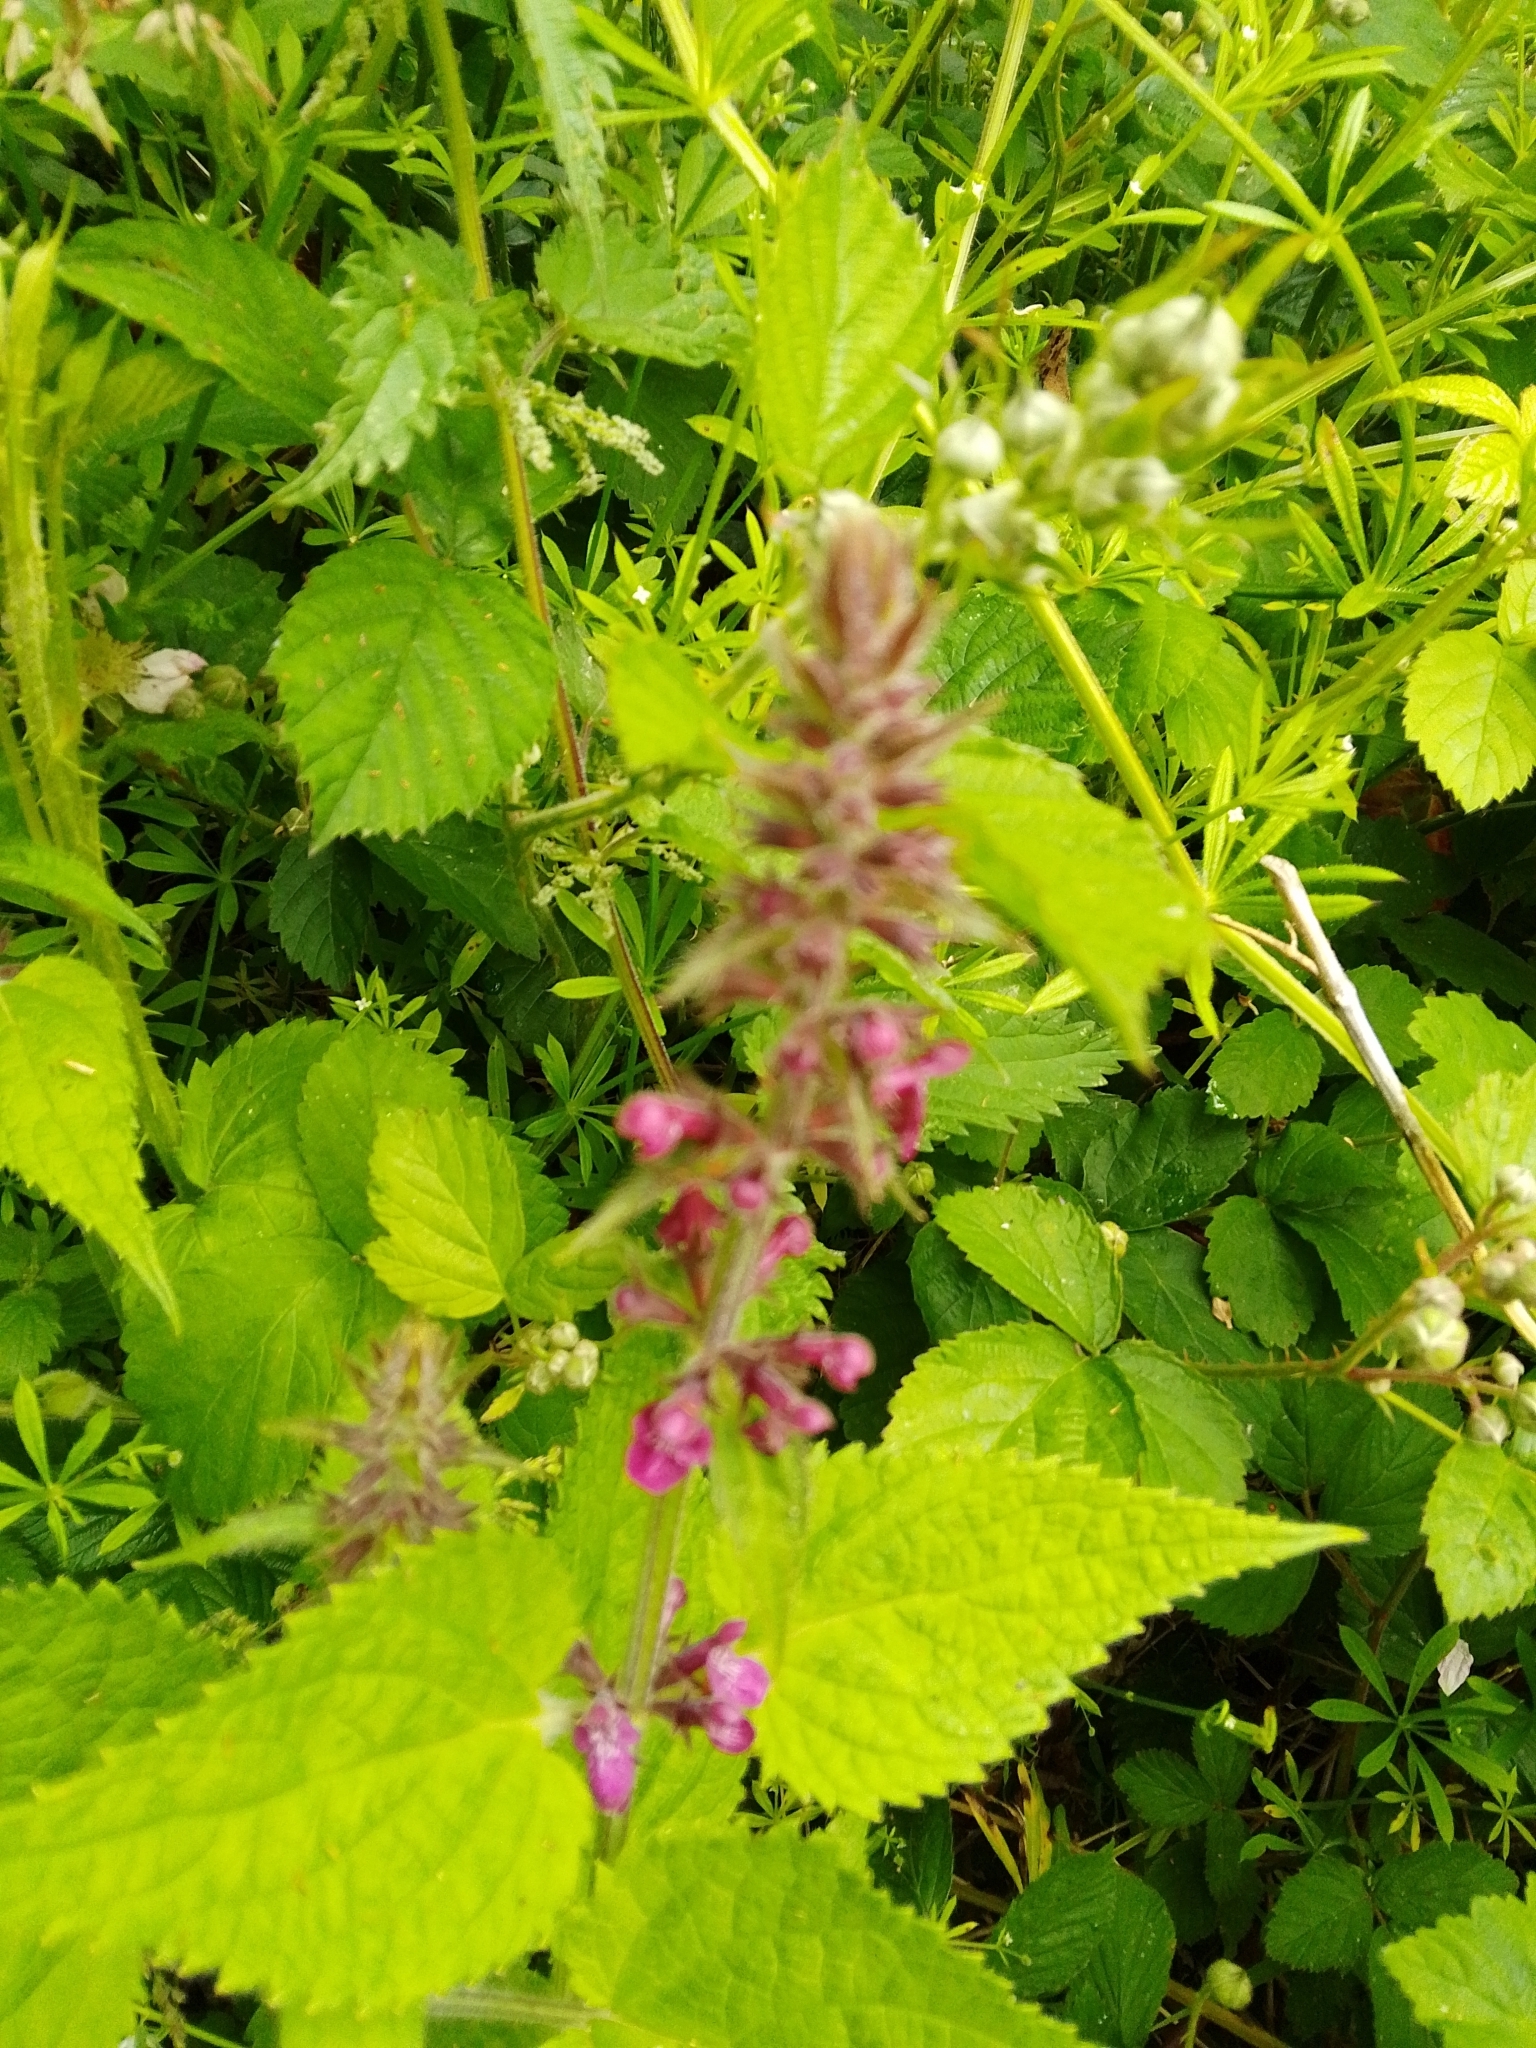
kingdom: Plantae
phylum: Tracheophyta
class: Magnoliopsida
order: Lamiales
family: Lamiaceae
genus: Stachys
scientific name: Stachys sylvatica
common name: Hedge woundwort
